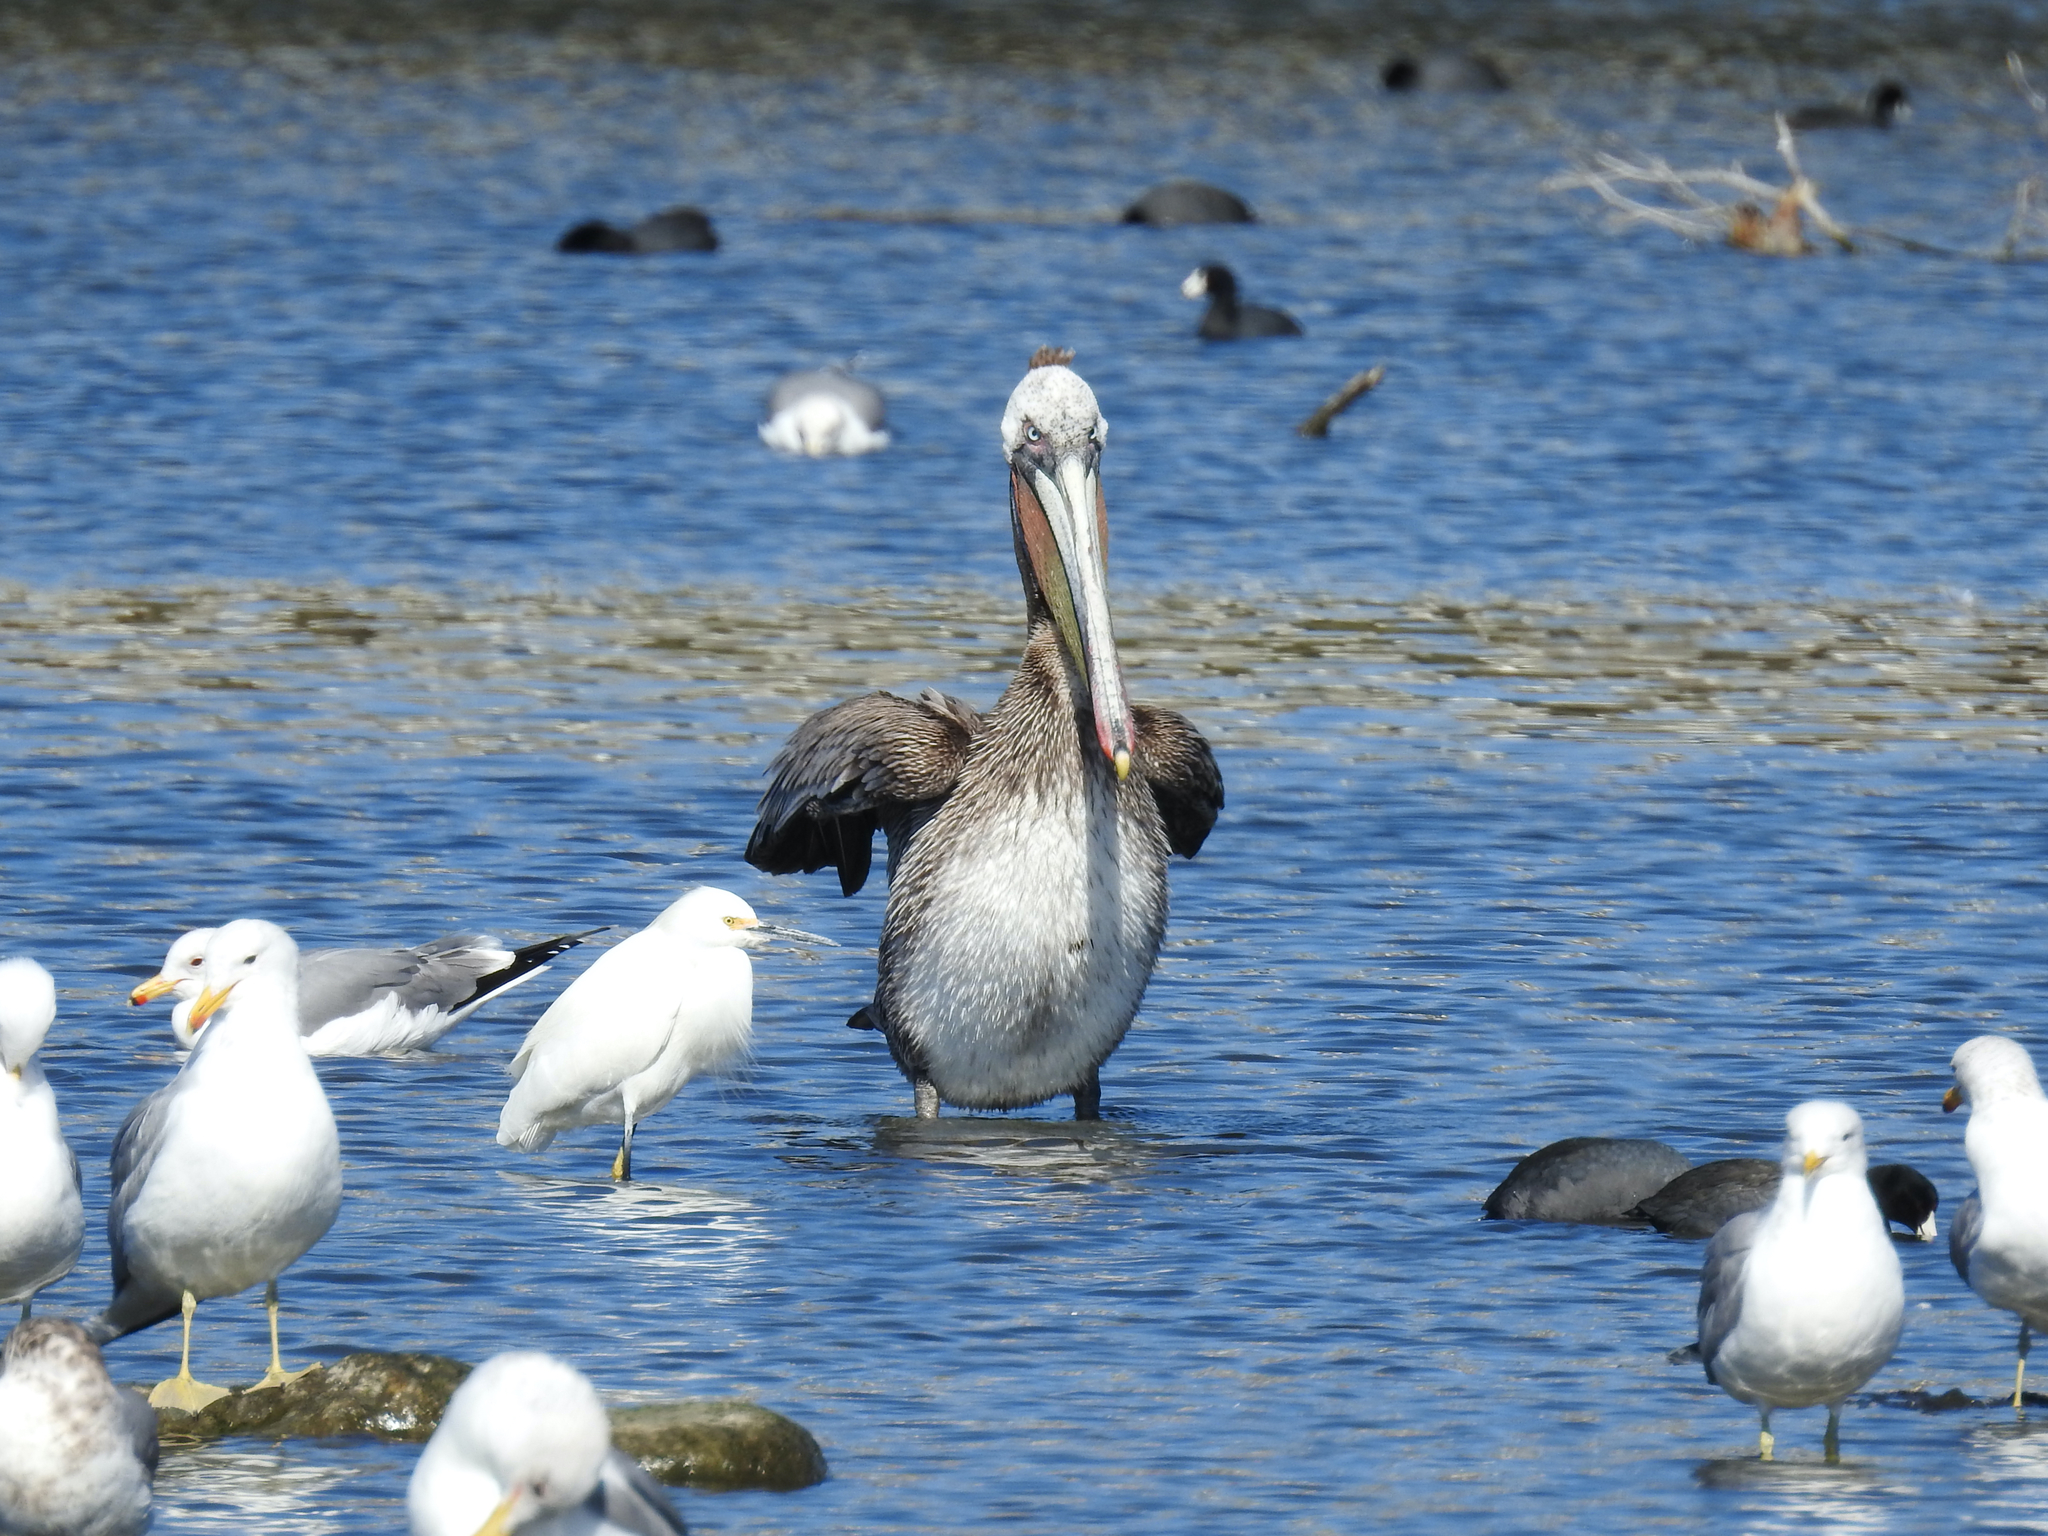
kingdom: Animalia
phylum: Chordata
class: Aves
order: Pelecaniformes
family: Pelecanidae
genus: Pelecanus
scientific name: Pelecanus occidentalis
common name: Brown pelican
